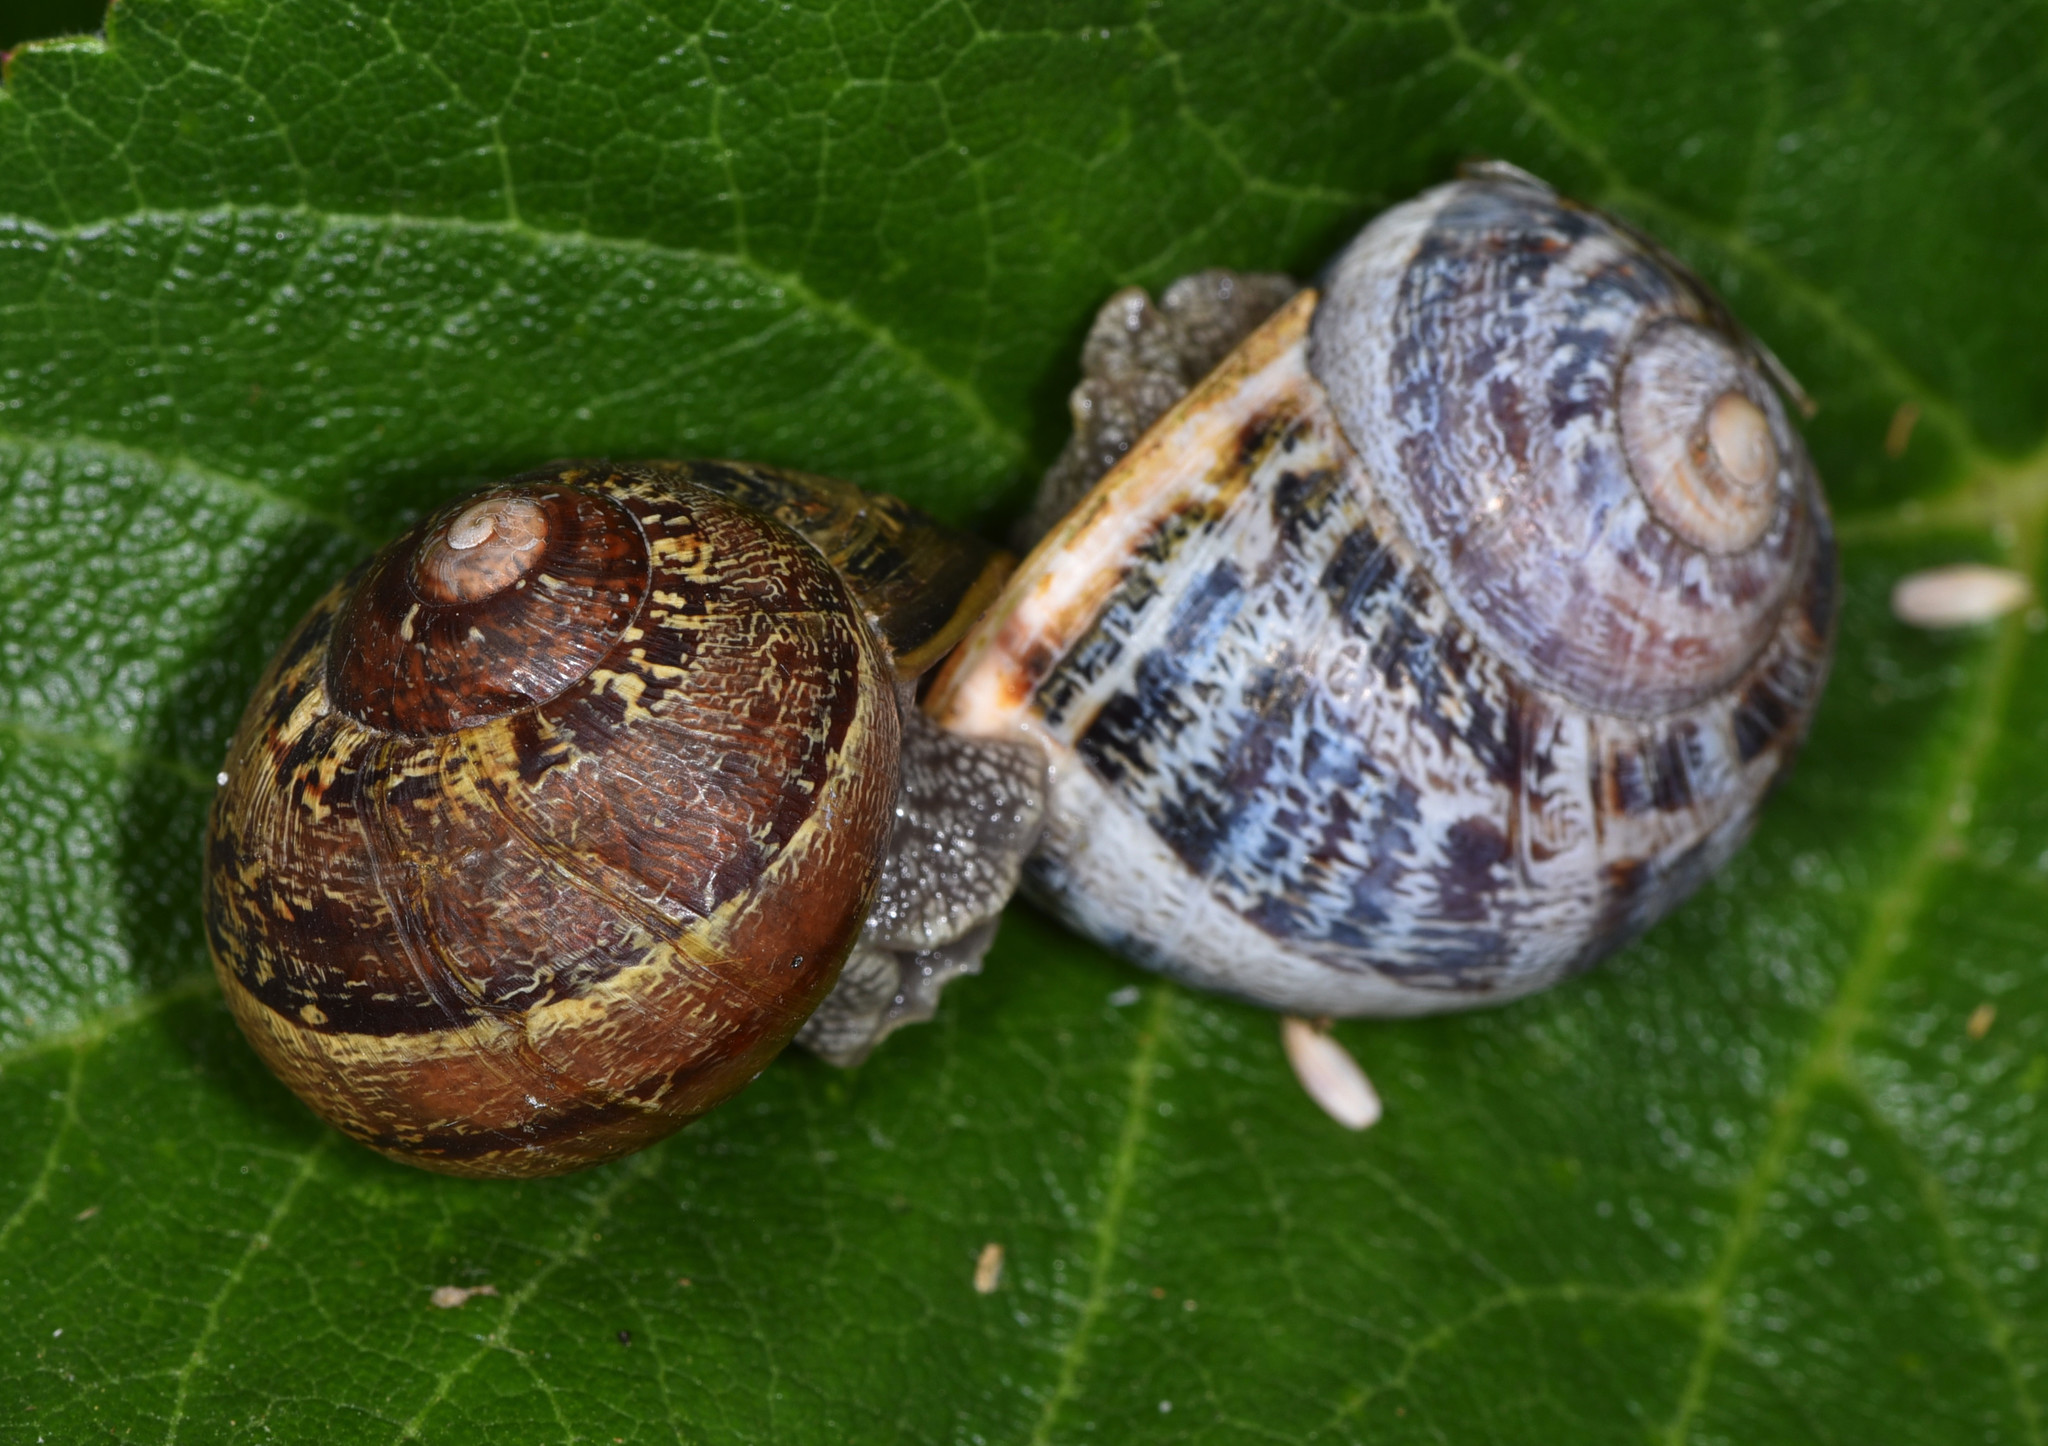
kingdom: Animalia
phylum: Mollusca
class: Gastropoda
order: Stylommatophora
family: Helicidae
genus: Cornu
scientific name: Cornu aspersum
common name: Brown garden snail
